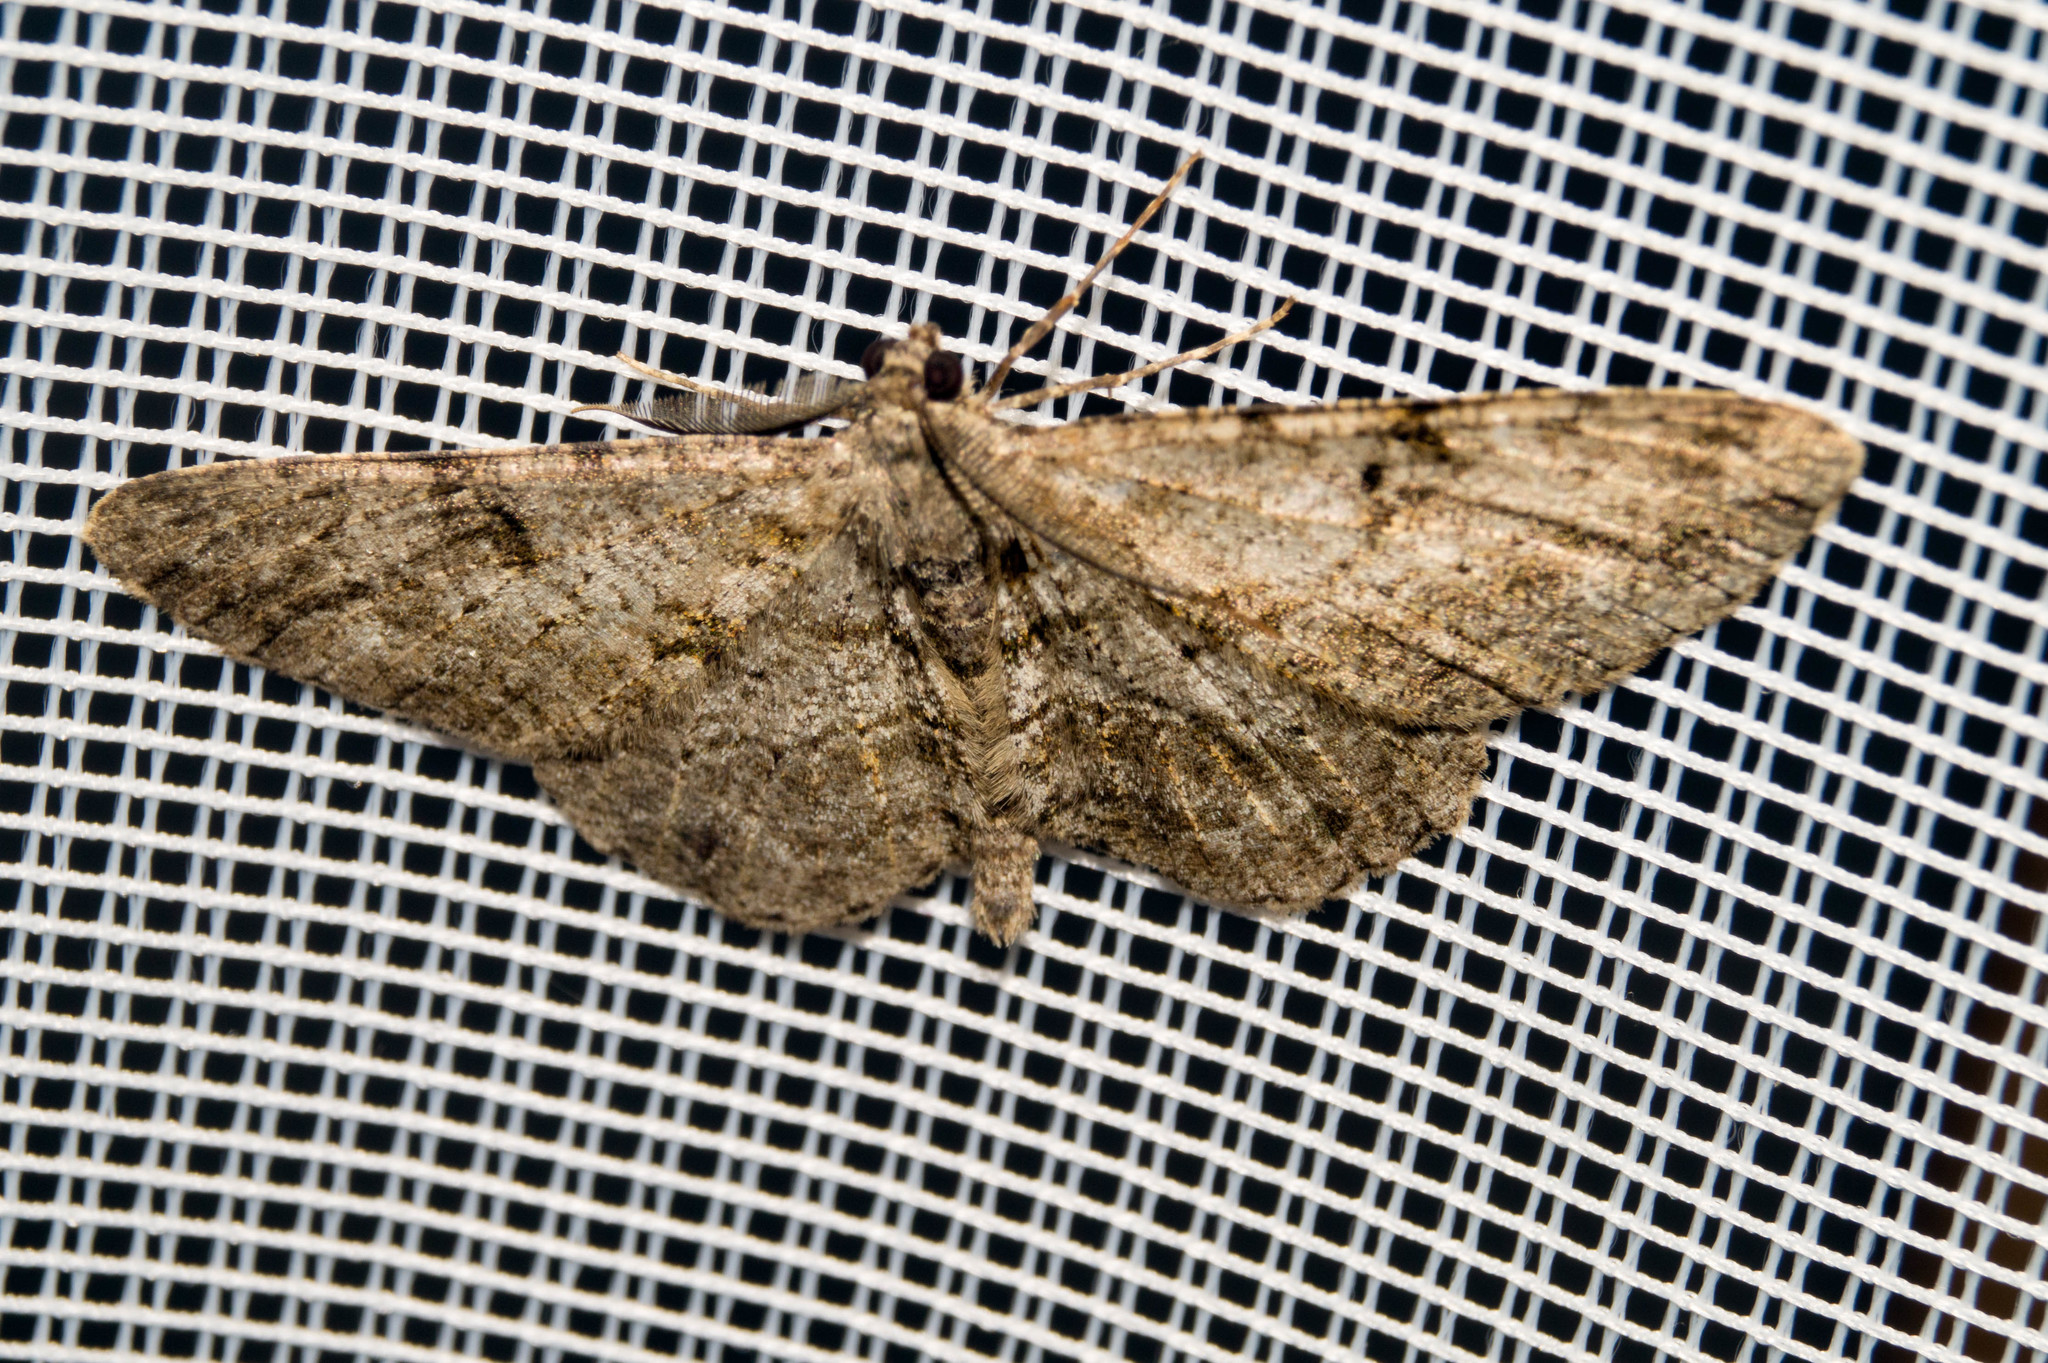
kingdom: Animalia
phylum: Arthropoda
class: Insecta
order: Lepidoptera
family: Geometridae
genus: Peribatodes
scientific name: Peribatodes rhomboidaria
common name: Willow beauty
